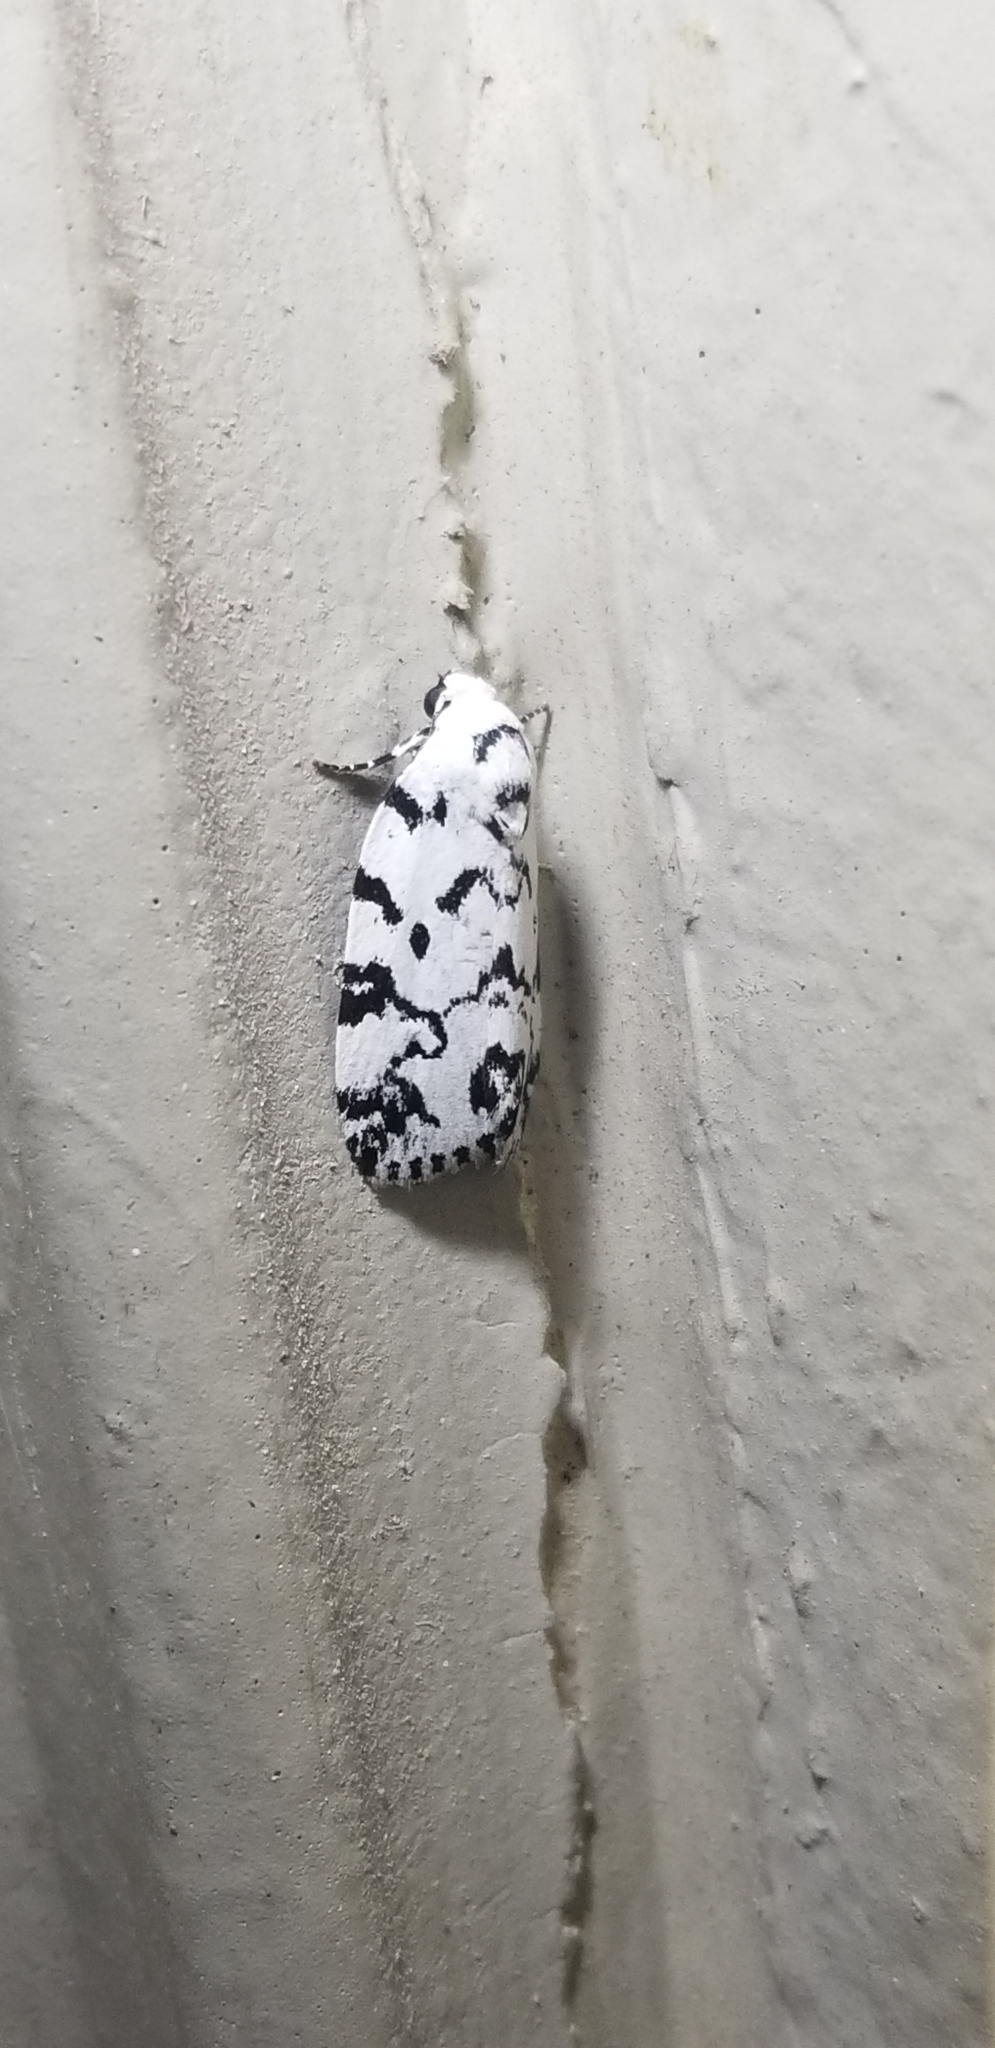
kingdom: Animalia
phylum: Arthropoda
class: Insecta
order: Lepidoptera
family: Noctuidae
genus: Polygrammate
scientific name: Polygrammate hebraeicum
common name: Hebrew moth
